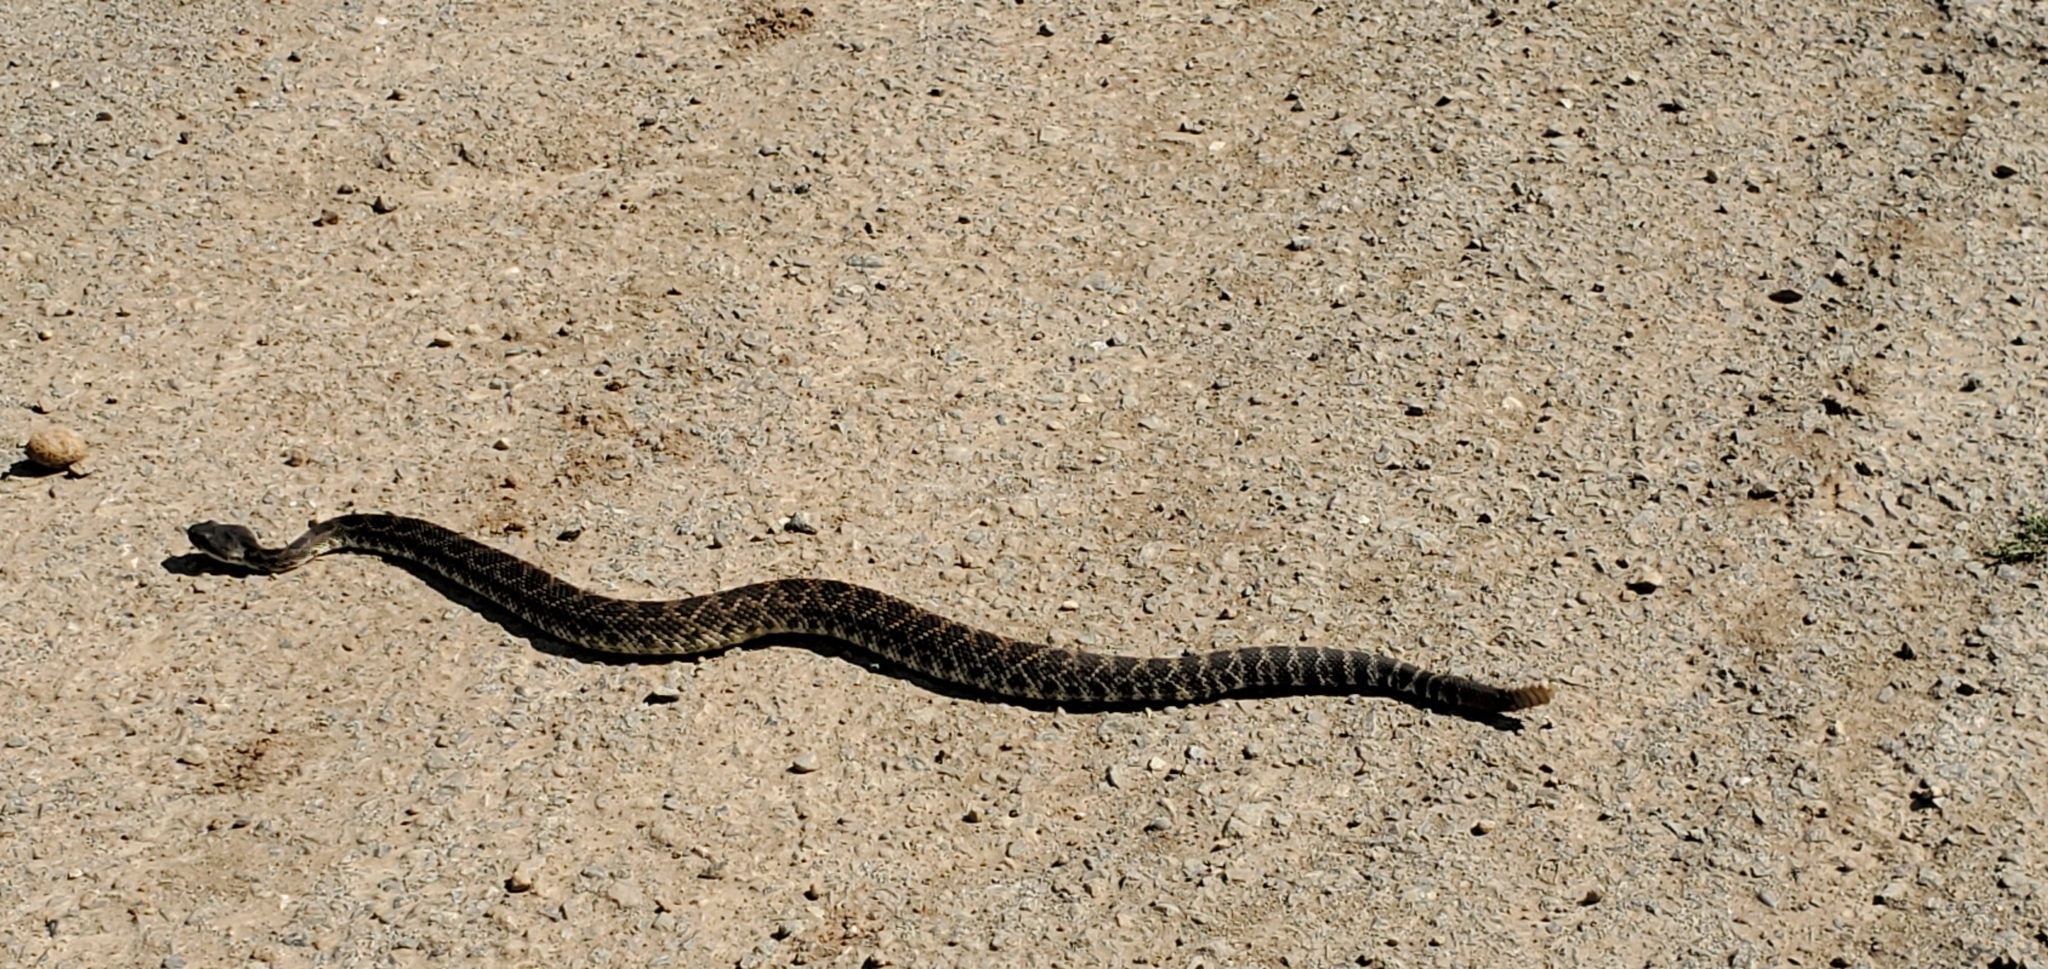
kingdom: Animalia
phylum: Chordata
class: Squamata
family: Viperidae
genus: Crotalus
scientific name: Crotalus oreganus
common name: Abyssus
